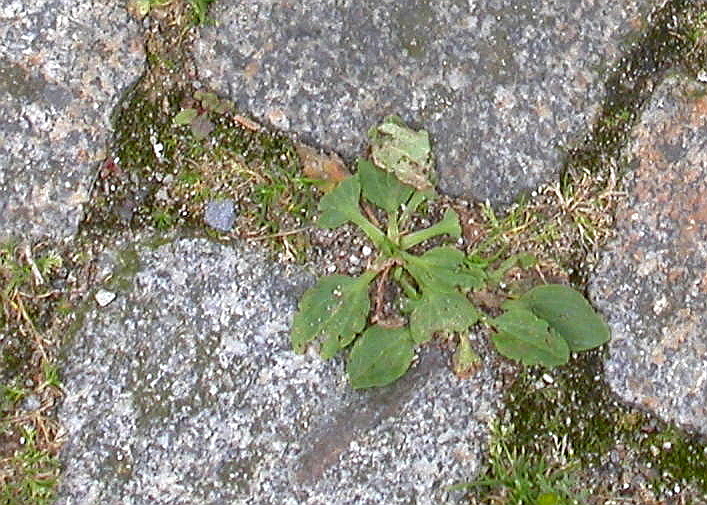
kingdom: Plantae
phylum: Tracheophyta
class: Magnoliopsida
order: Lamiales
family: Plantaginaceae
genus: Plantago
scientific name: Plantago major
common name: Common plantain
